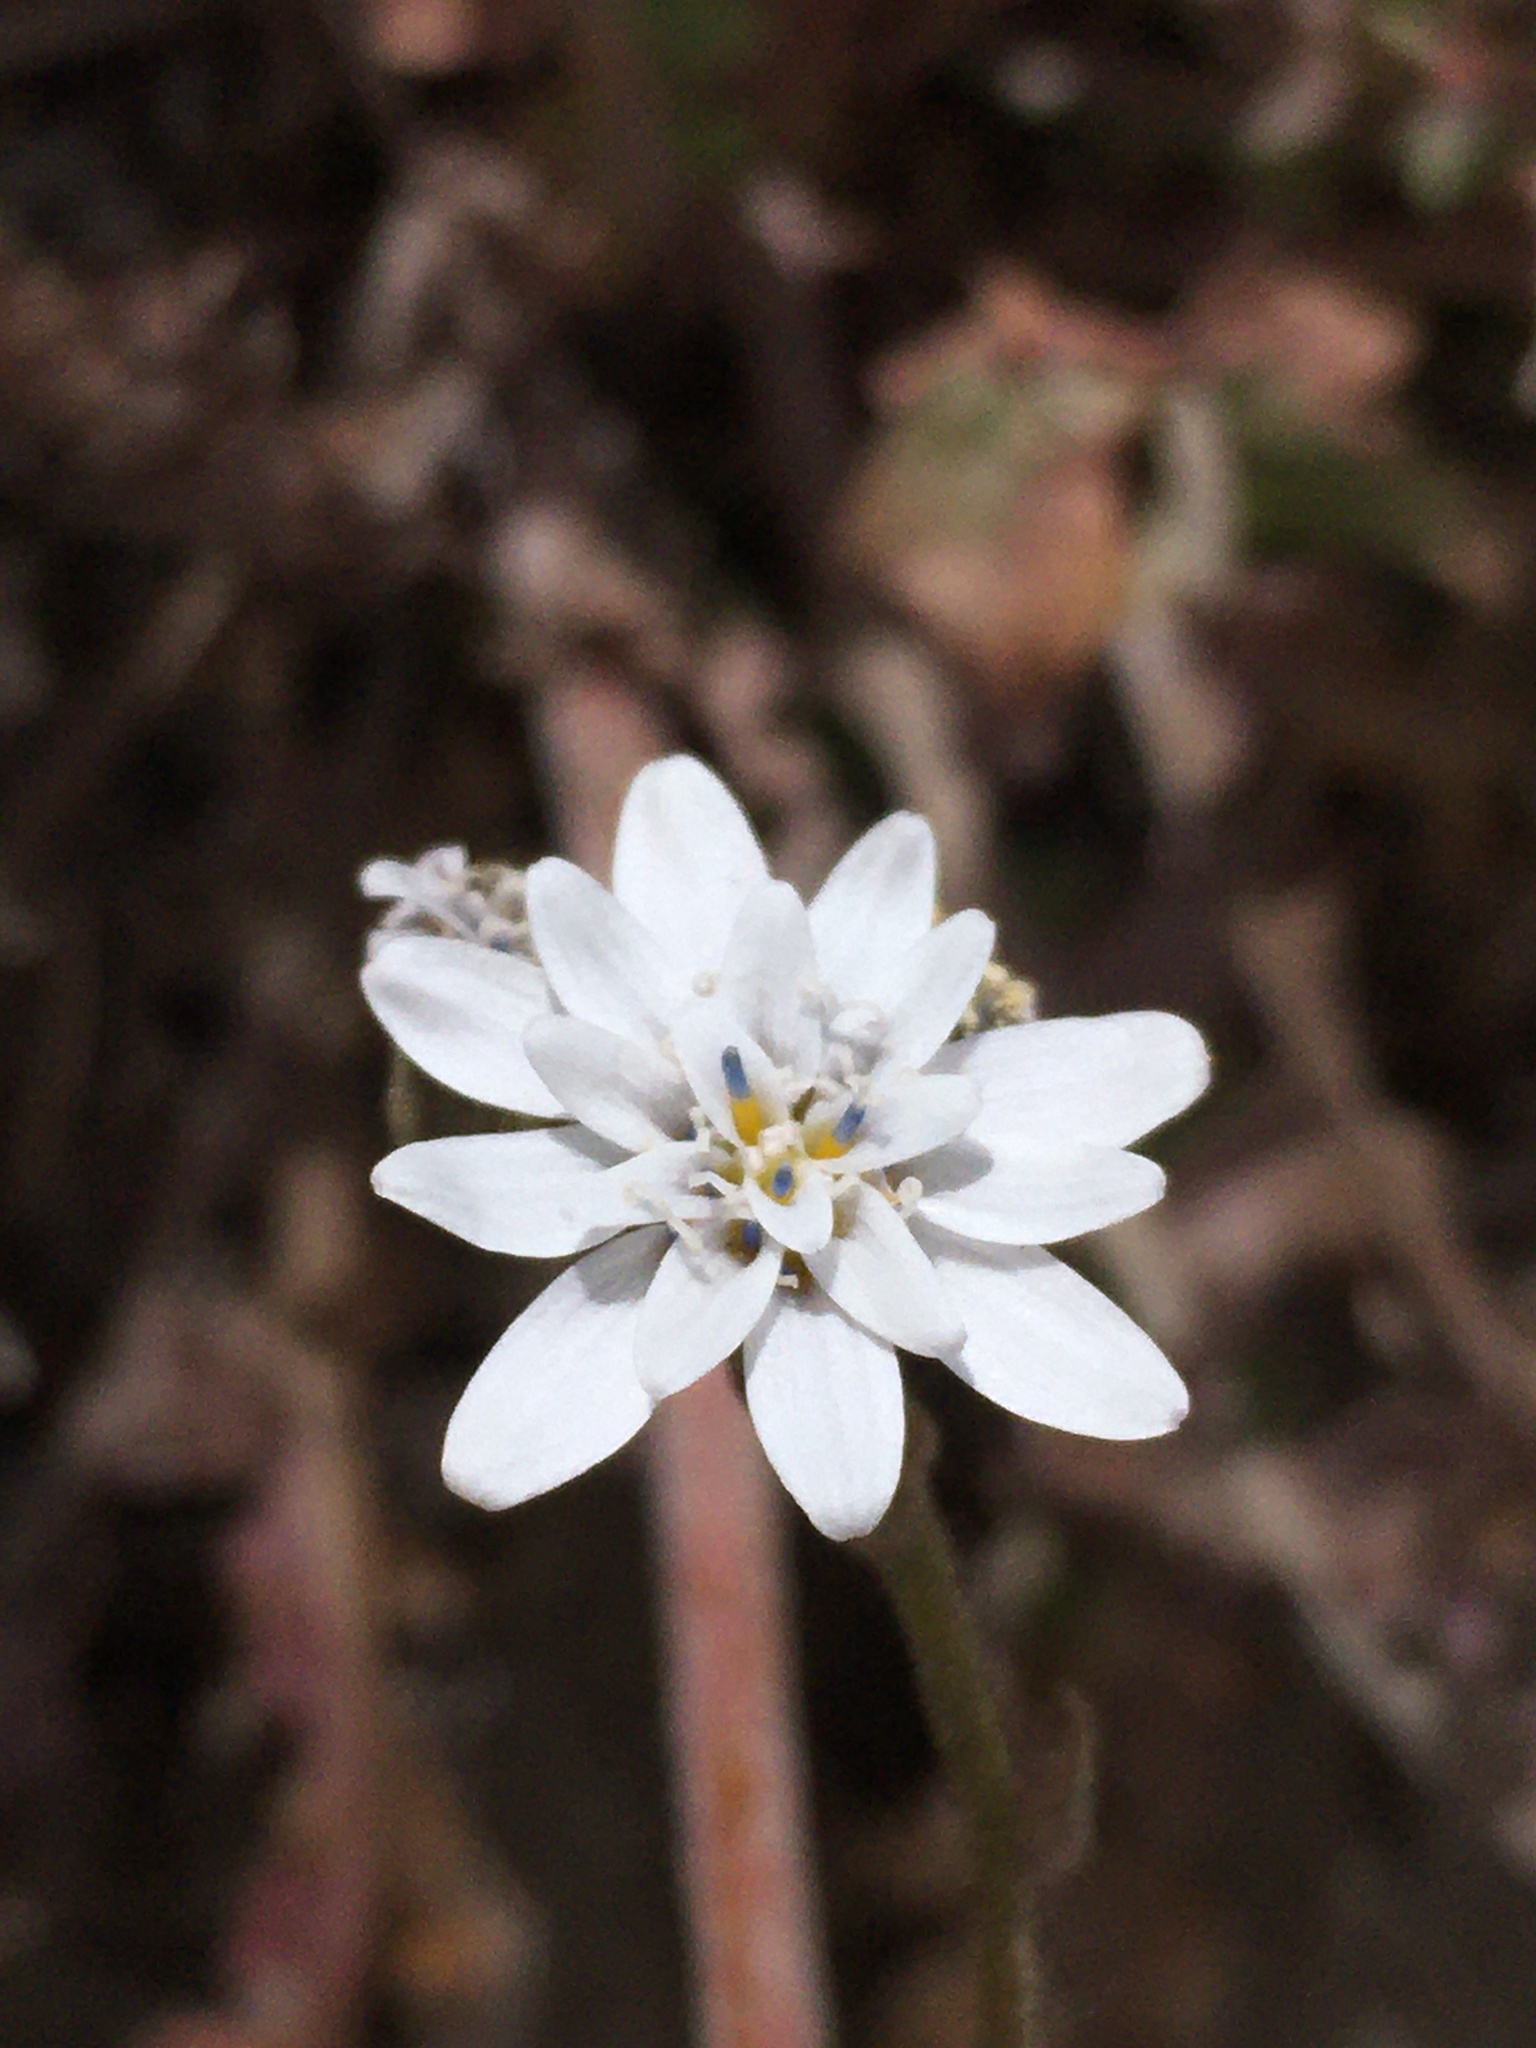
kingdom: Plantae
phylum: Tracheophyta
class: Magnoliopsida
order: Asterales
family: Asteraceae
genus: Leucheria
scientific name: Leucheria gayana
